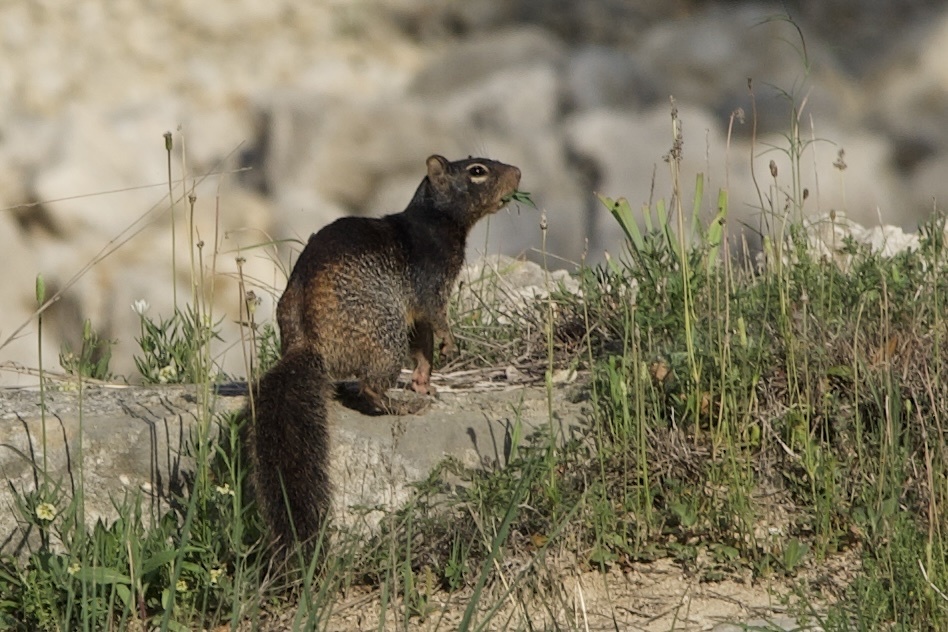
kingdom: Animalia
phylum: Chordata
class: Mammalia
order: Rodentia
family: Sciuridae
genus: Otospermophilus
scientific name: Otospermophilus variegatus
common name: Rock squirrel
